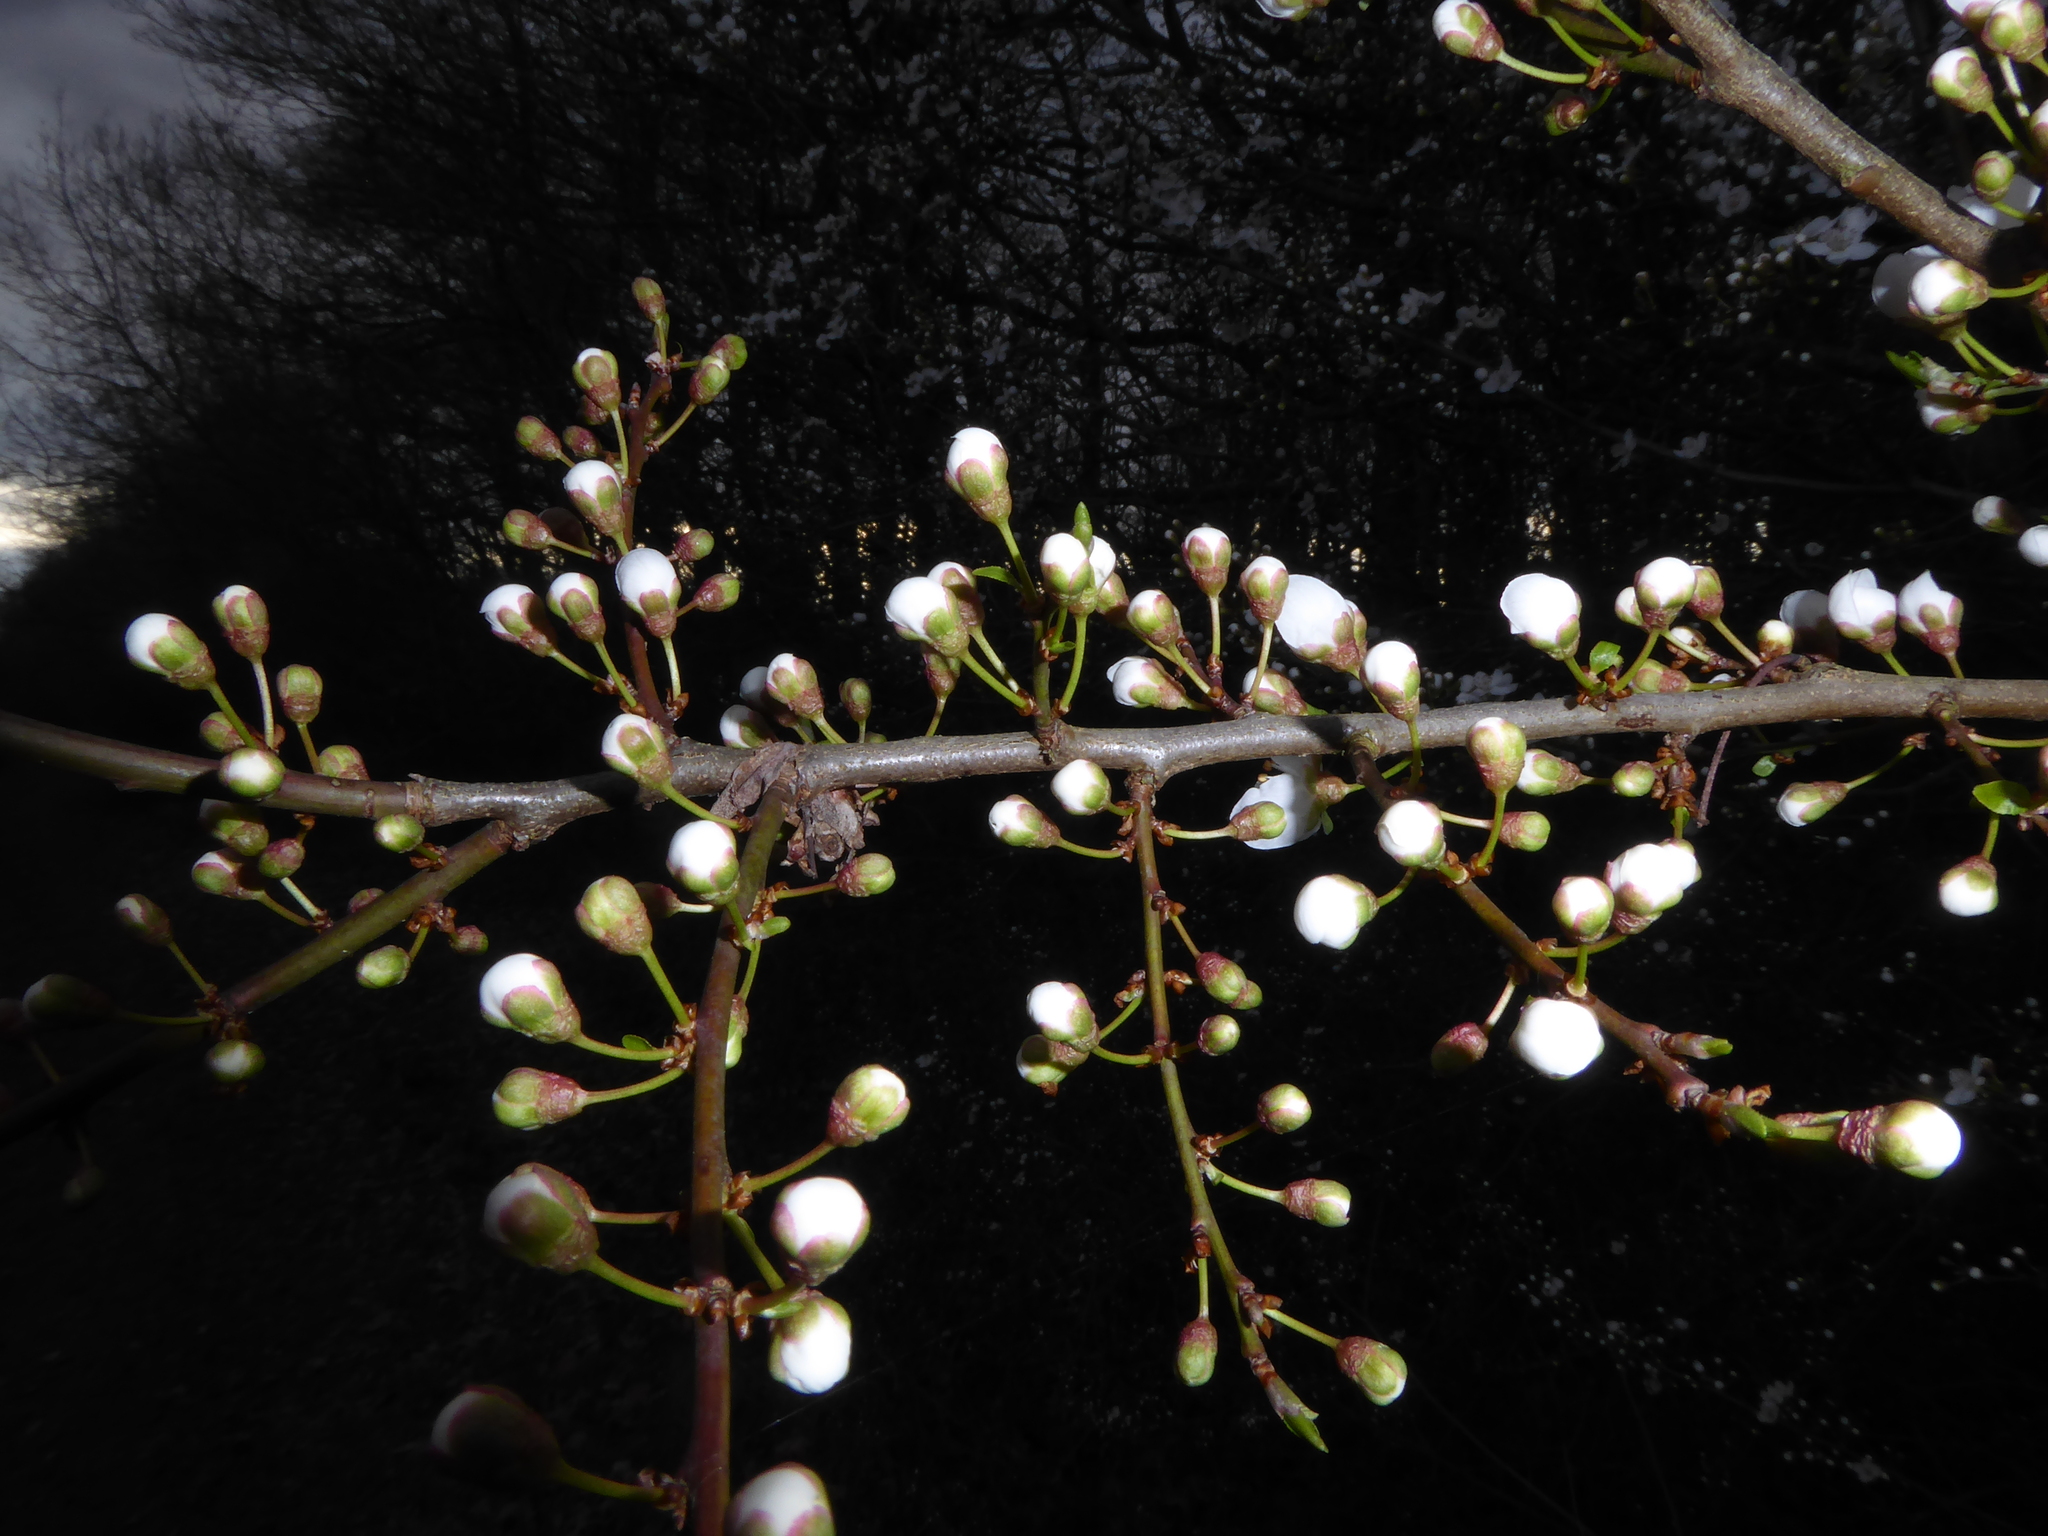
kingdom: Plantae
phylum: Tracheophyta
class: Magnoliopsida
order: Rosales
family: Rosaceae
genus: Prunus
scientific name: Prunus cerasifera
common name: Cherry plum
